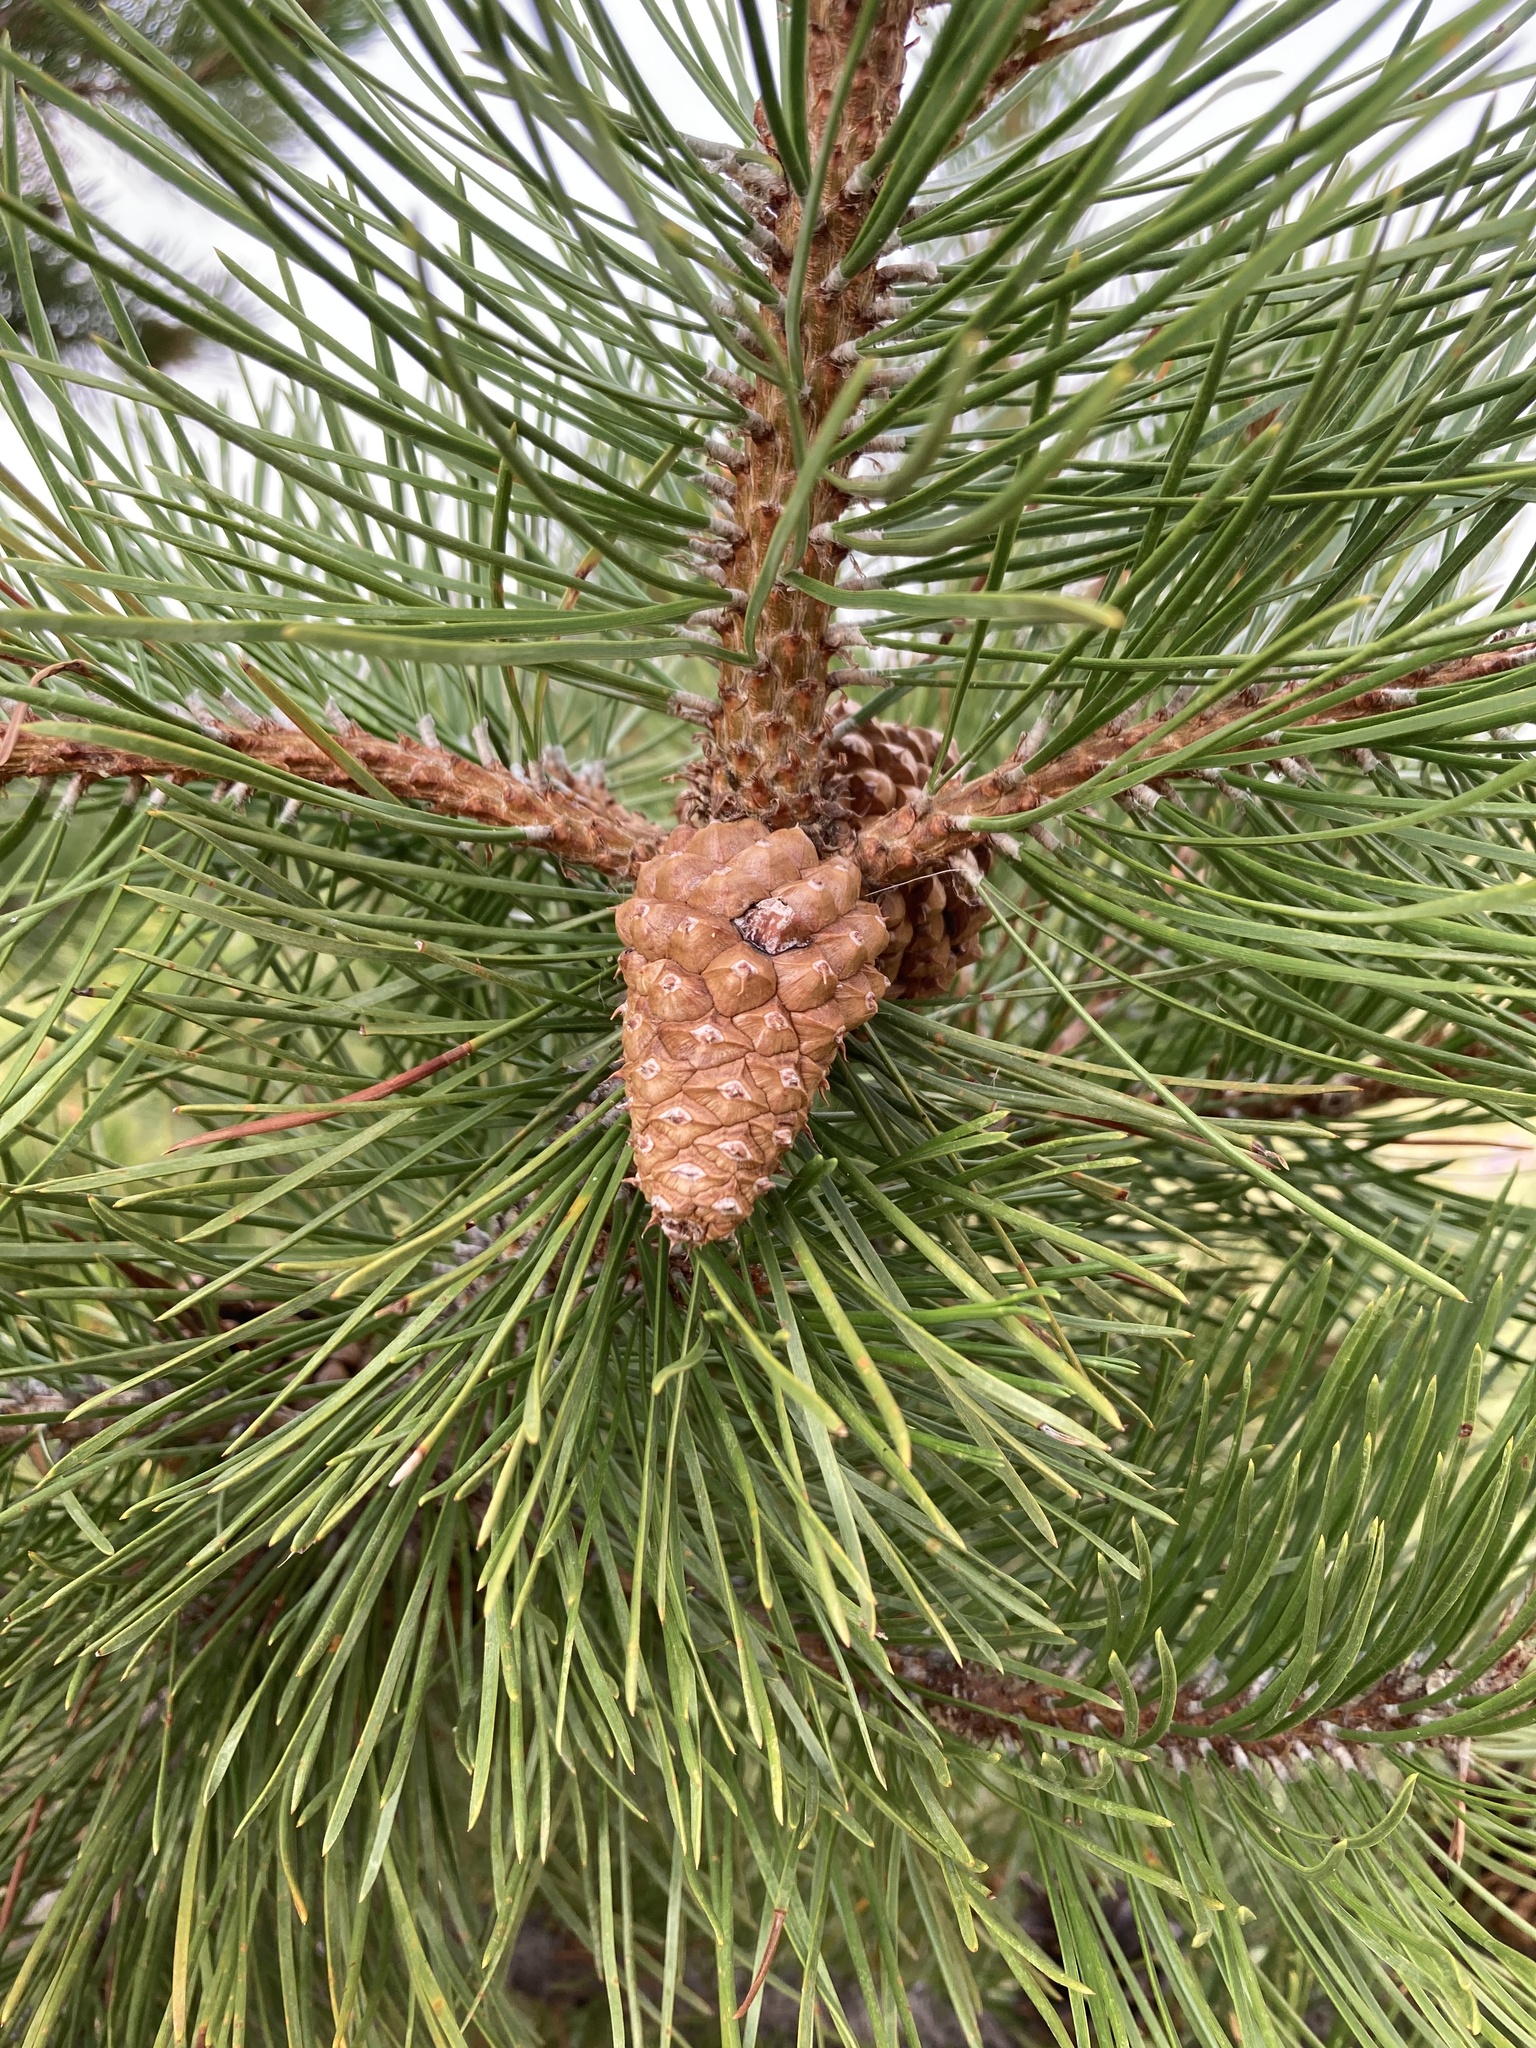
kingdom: Plantae
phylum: Tracheophyta
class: Pinopsida
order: Pinales
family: Pinaceae
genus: Pinus
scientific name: Pinus contorta
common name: Lodgepole pine
